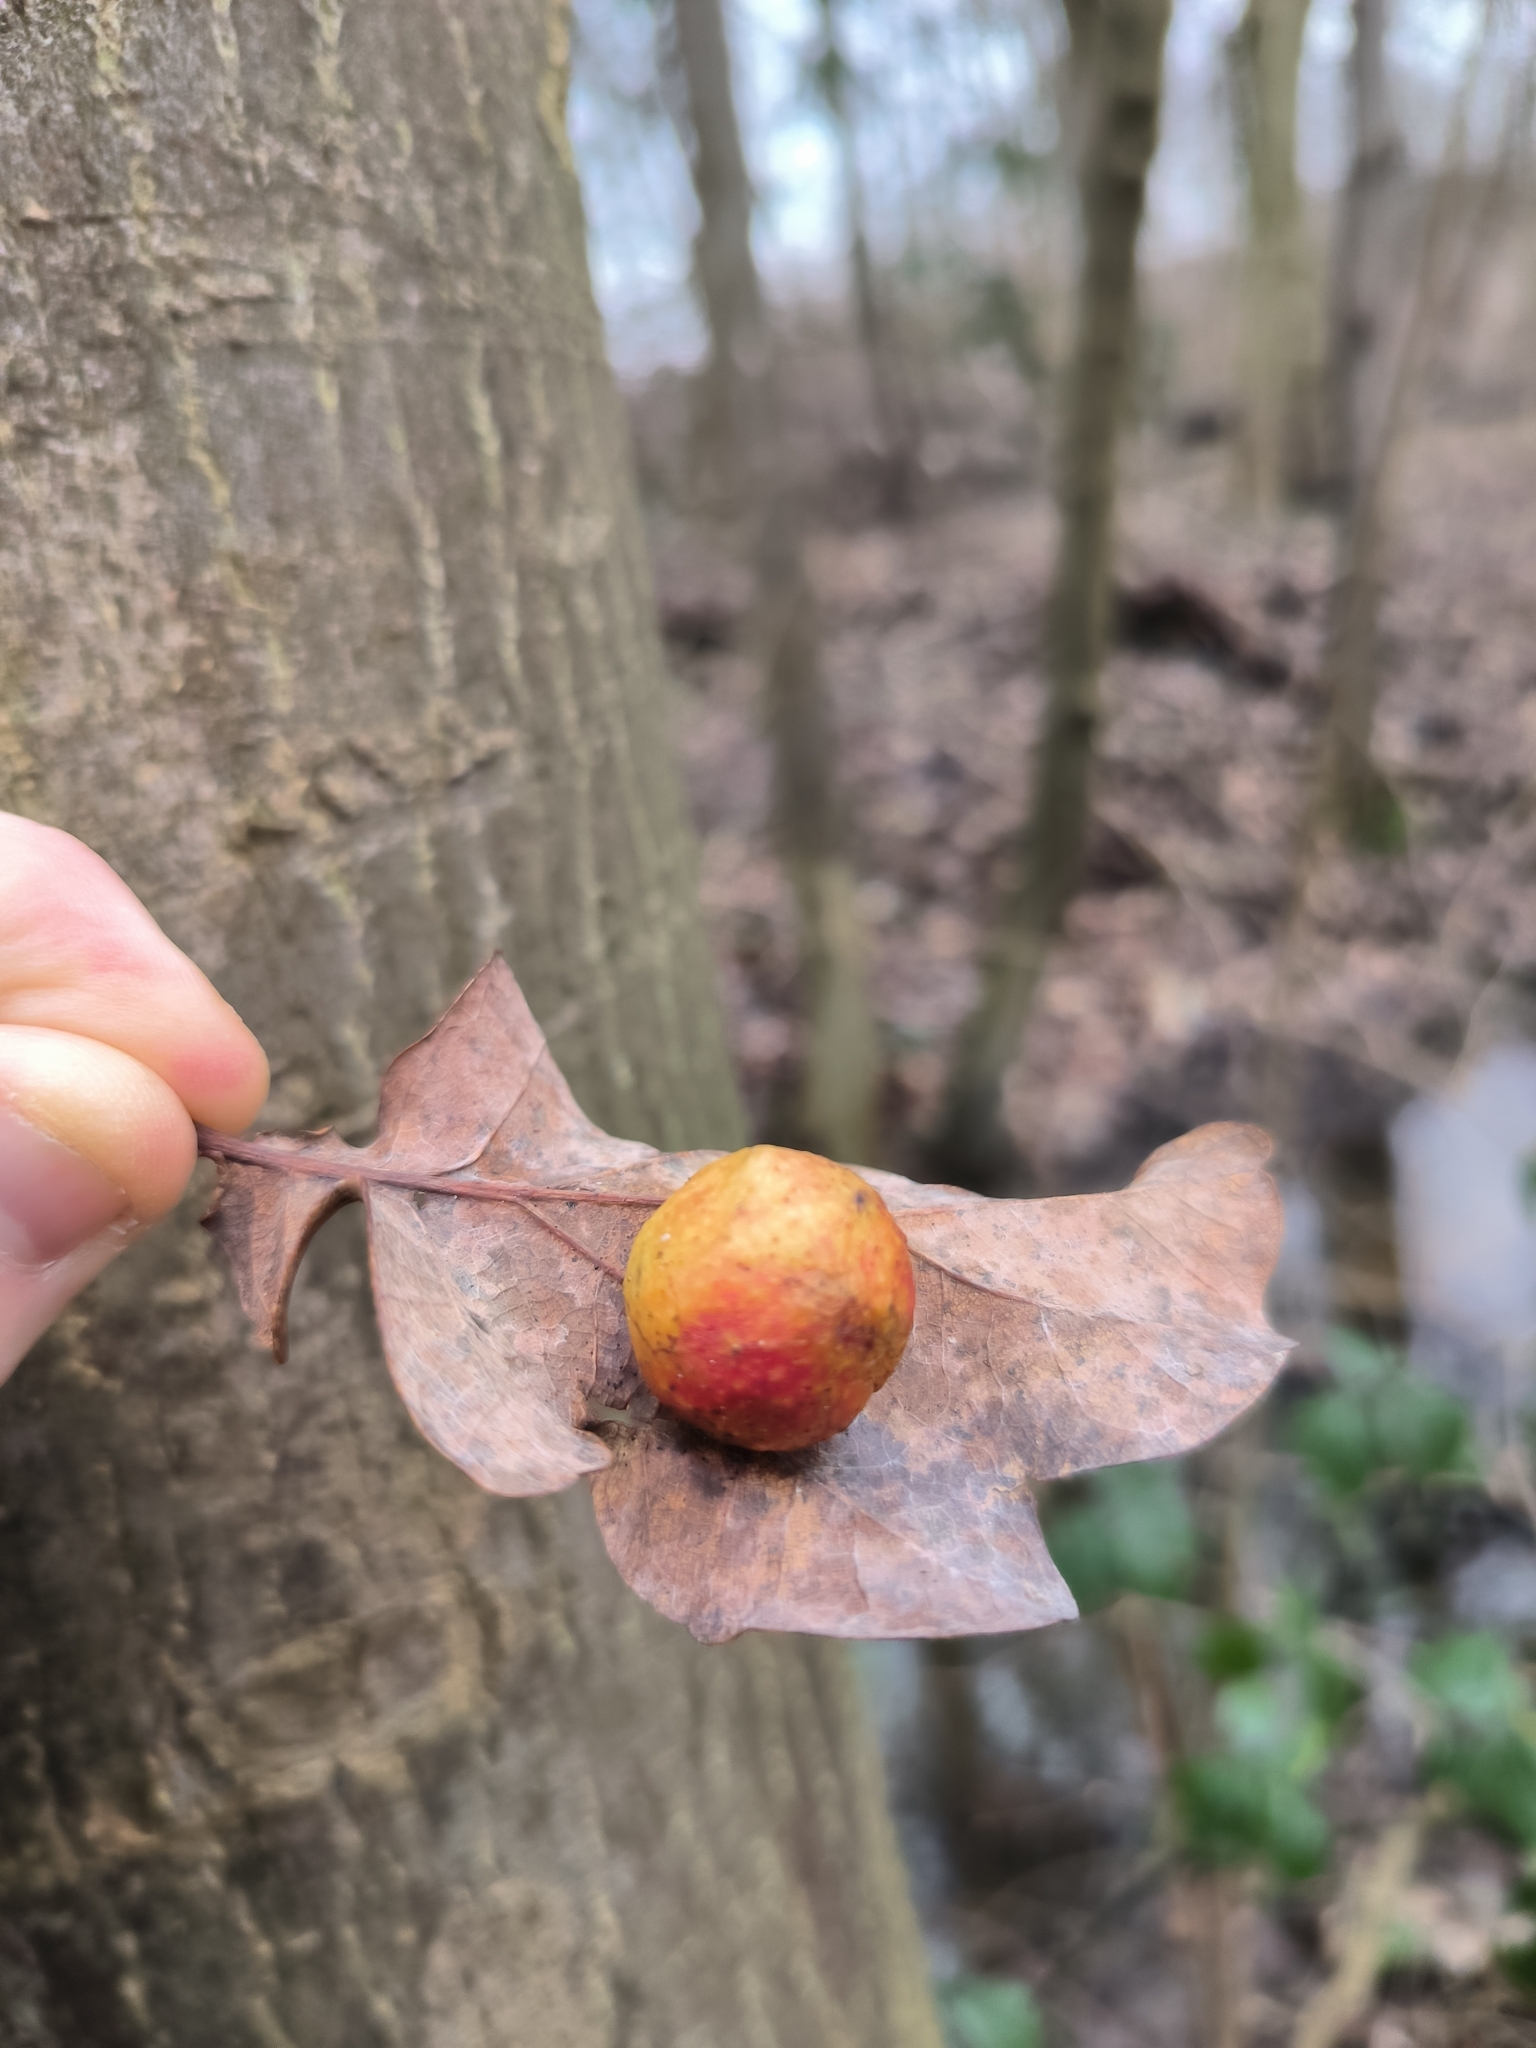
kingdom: Animalia
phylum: Arthropoda
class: Insecta
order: Hymenoptera
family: Cynipidae
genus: Cynips
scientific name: Cynips quercusfolii
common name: Cherry gall
